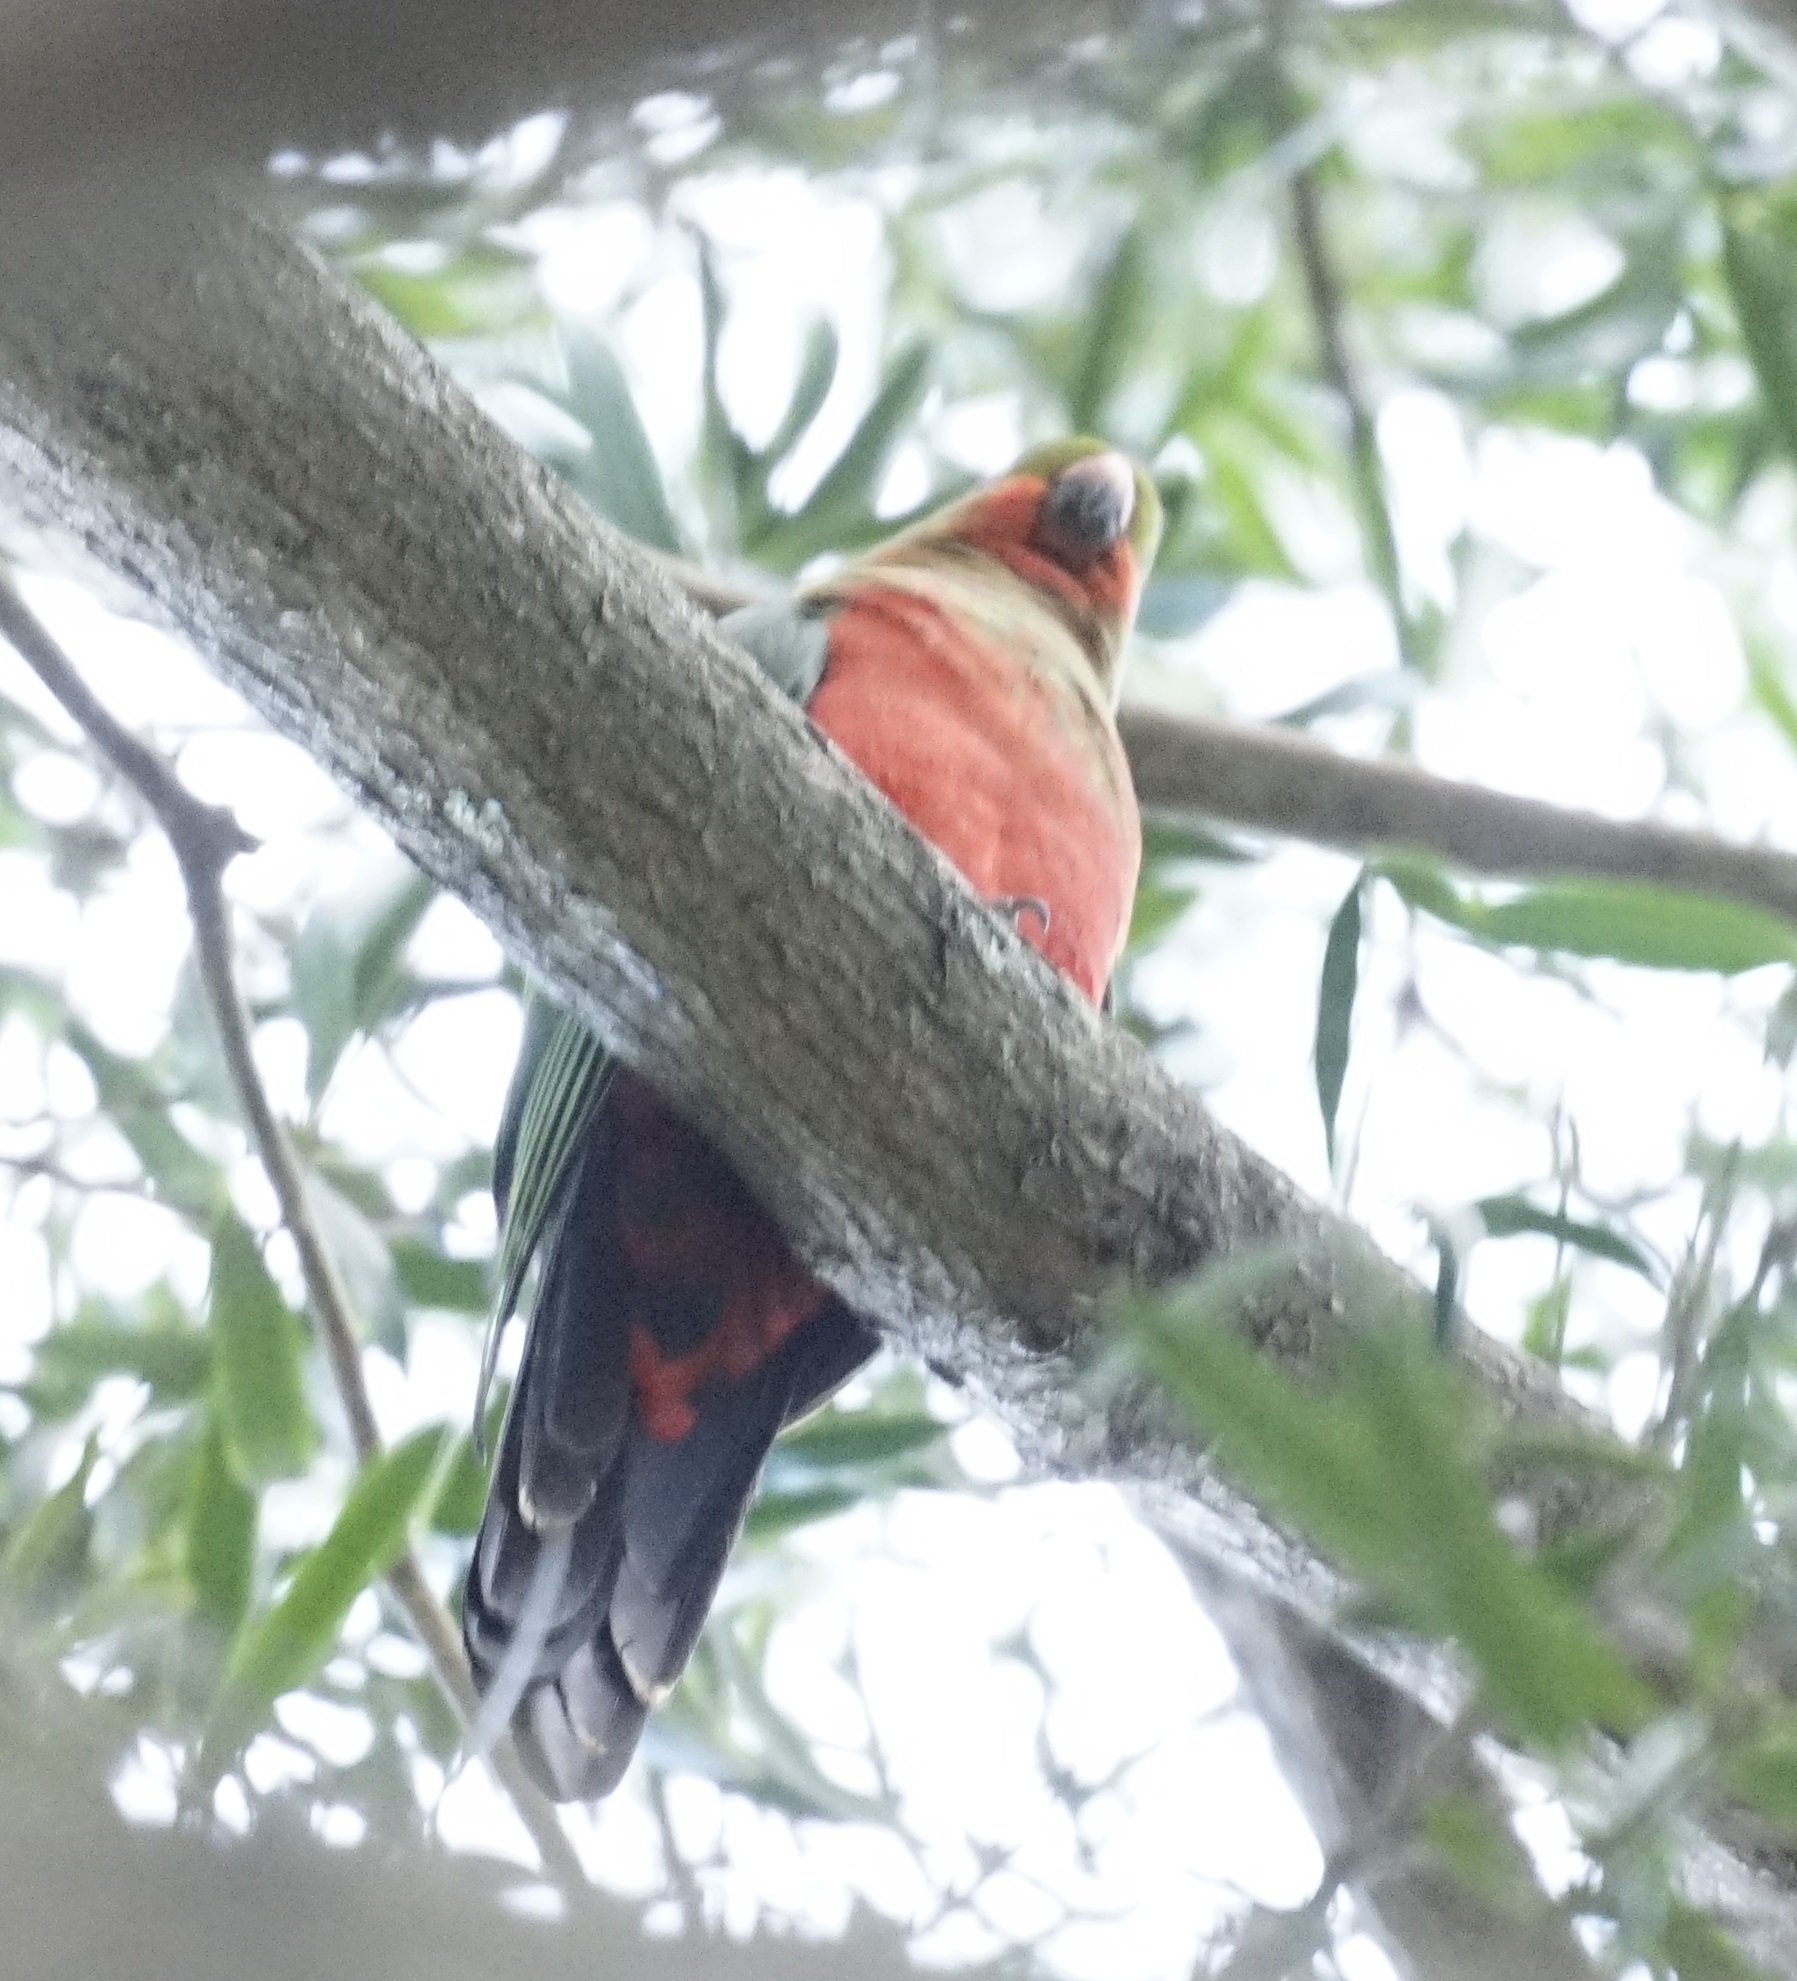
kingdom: Animalia
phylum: Chordata
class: Aves
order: Psittaciformes
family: Psittacidae
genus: Alisterus
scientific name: Alisterus scapularis
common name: Australian king parrot
